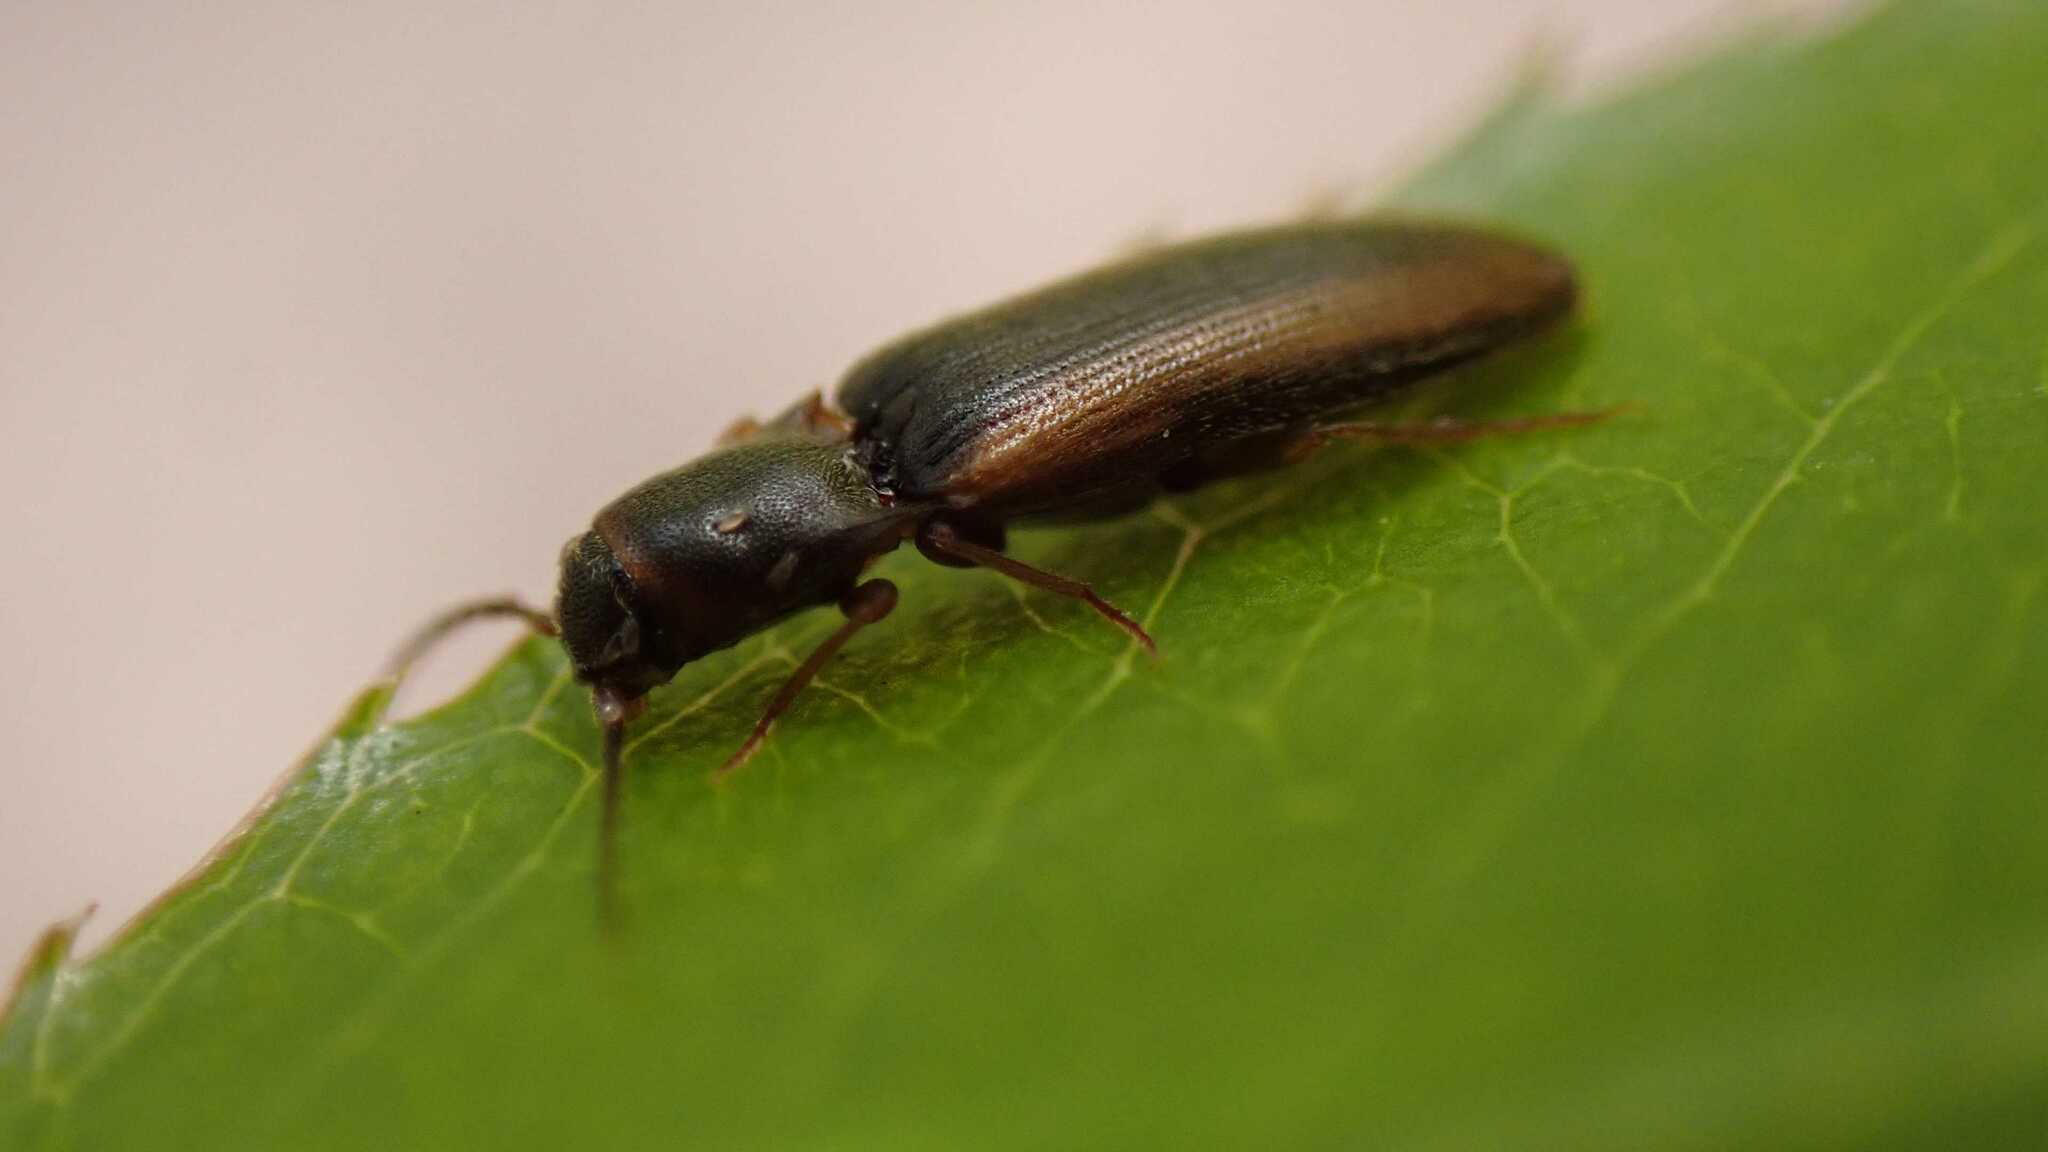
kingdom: Animalia
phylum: Arthropoda
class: Insecta
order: Coleoptera
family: Elateridae
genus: Dalopius
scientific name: Dalopius marginatus
